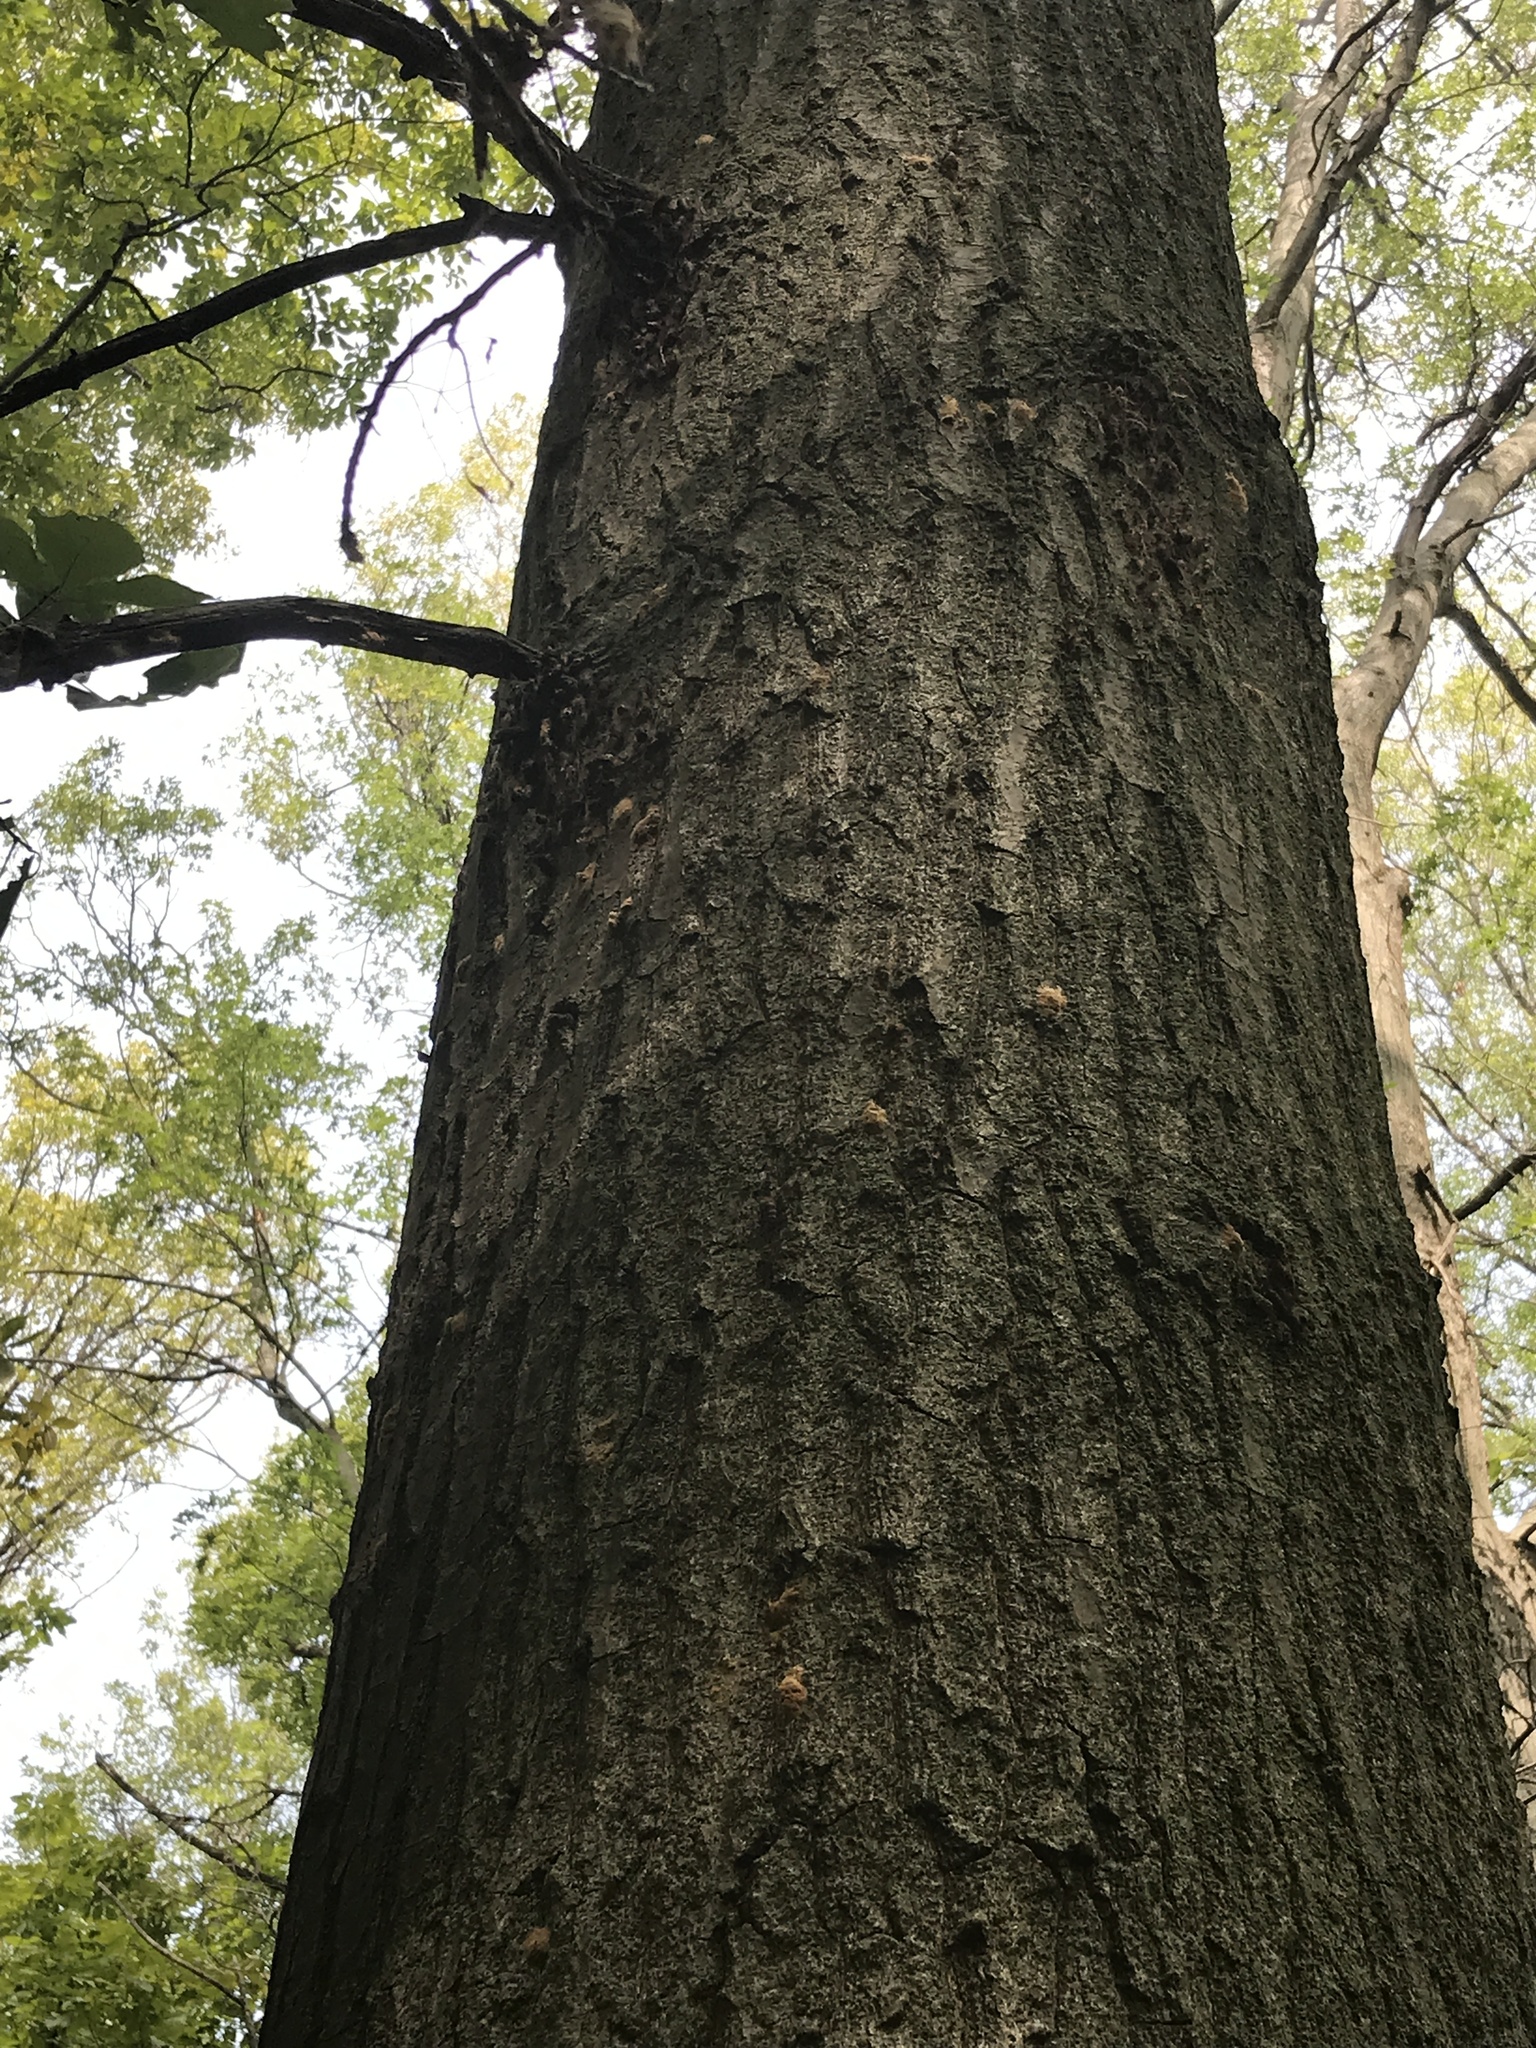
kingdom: Animalia
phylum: Arthropoda
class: Insecta
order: Lepidoptera
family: Erebidae
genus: Lymantria
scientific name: Lymantria dispar
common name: Gypsy moth
